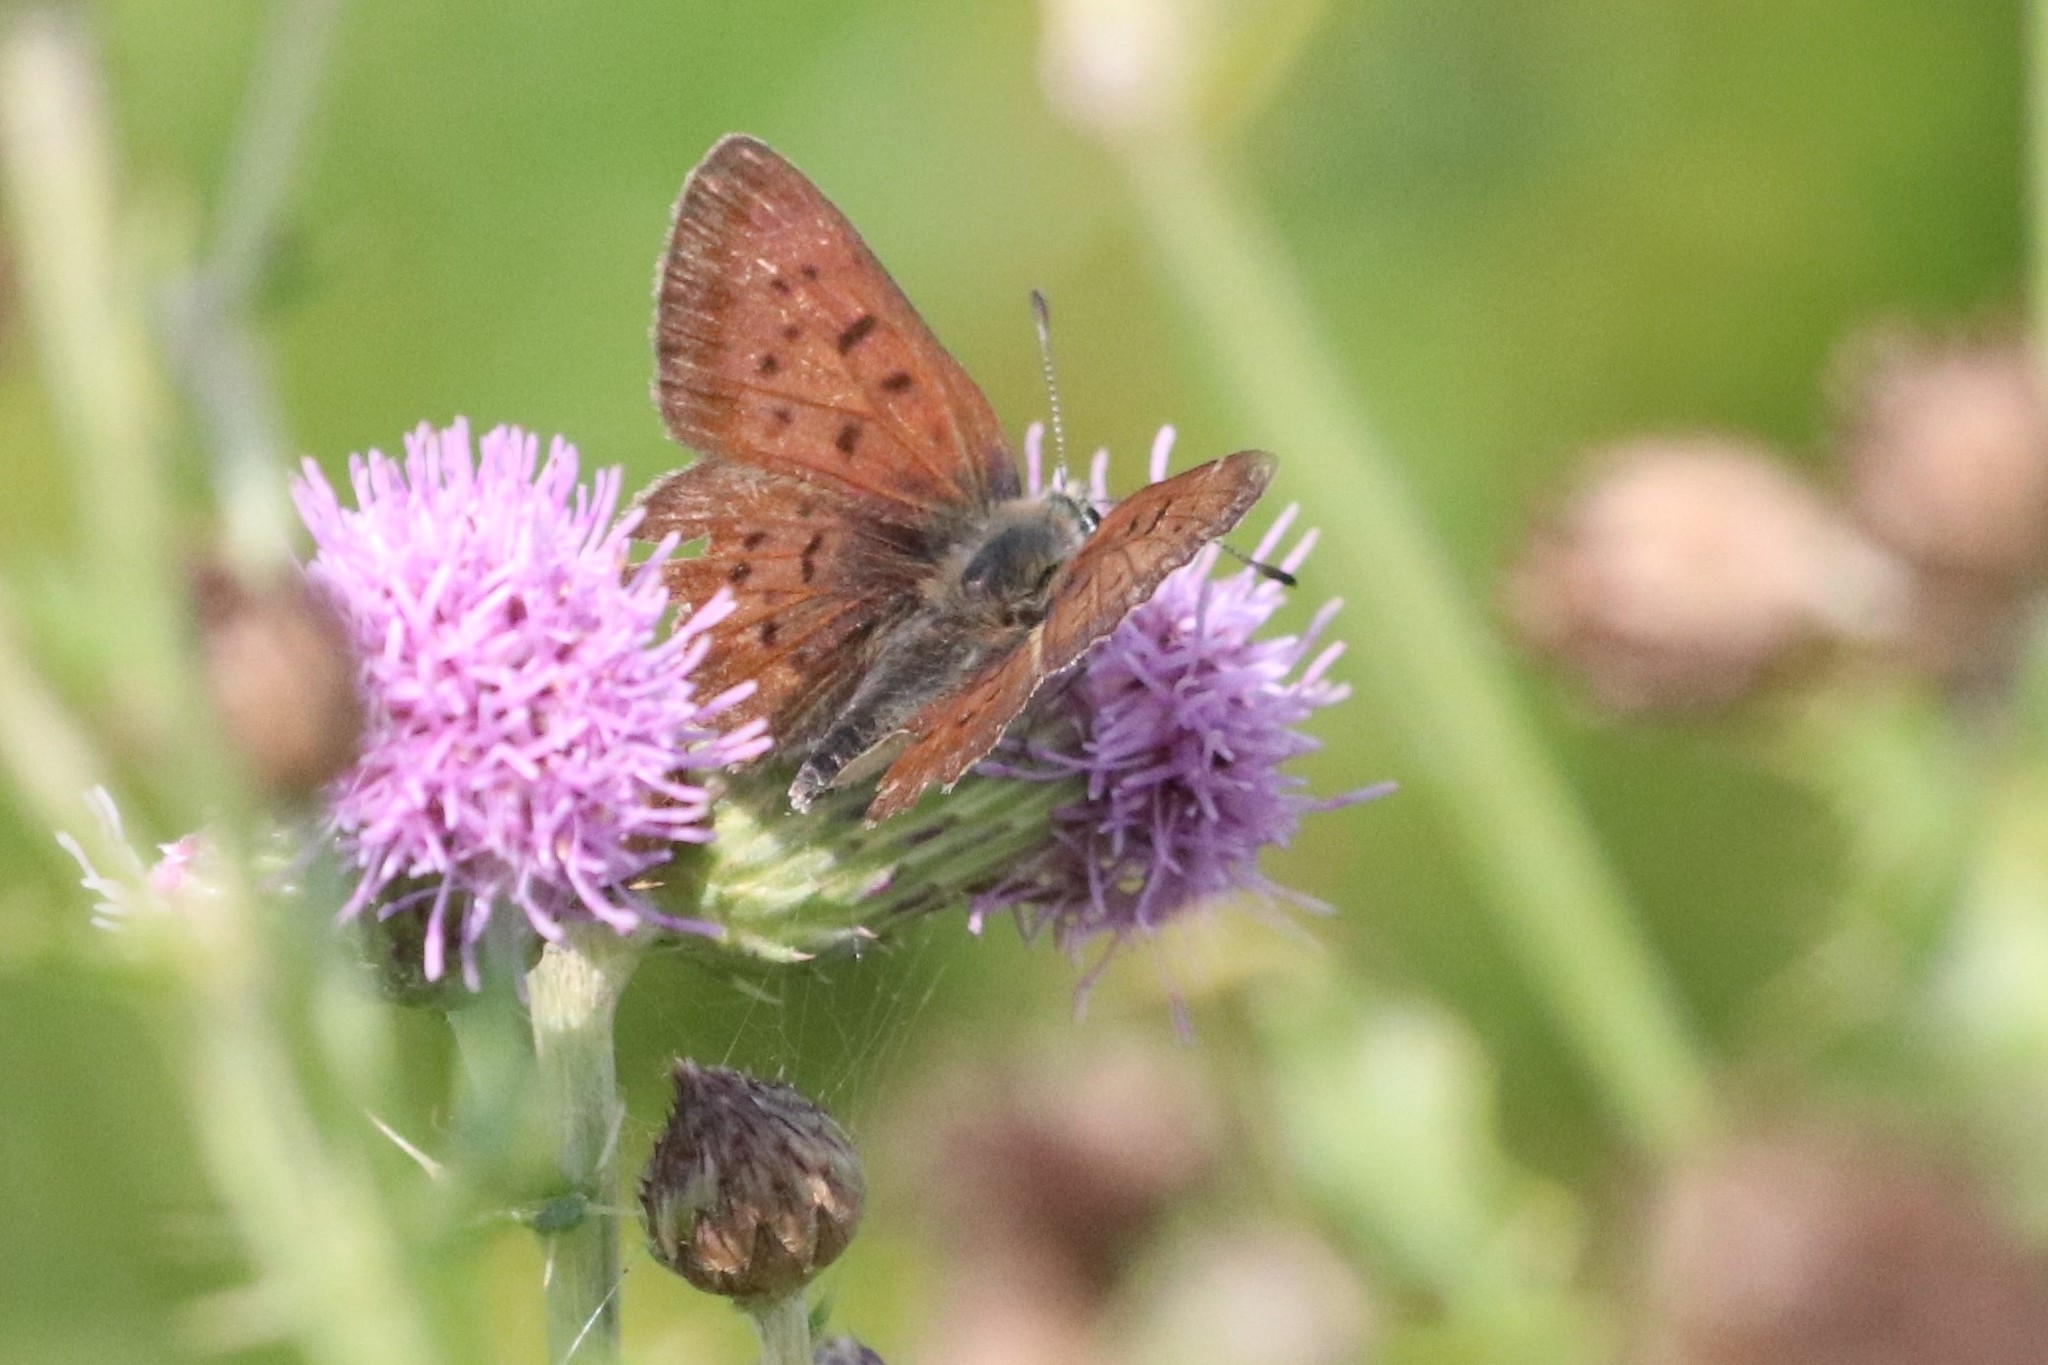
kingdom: Animalia
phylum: Arthropoda
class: Insecta
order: Lepidoptera
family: Lycaenidae
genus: Tharsalea
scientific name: Tharsalea dospassosi
